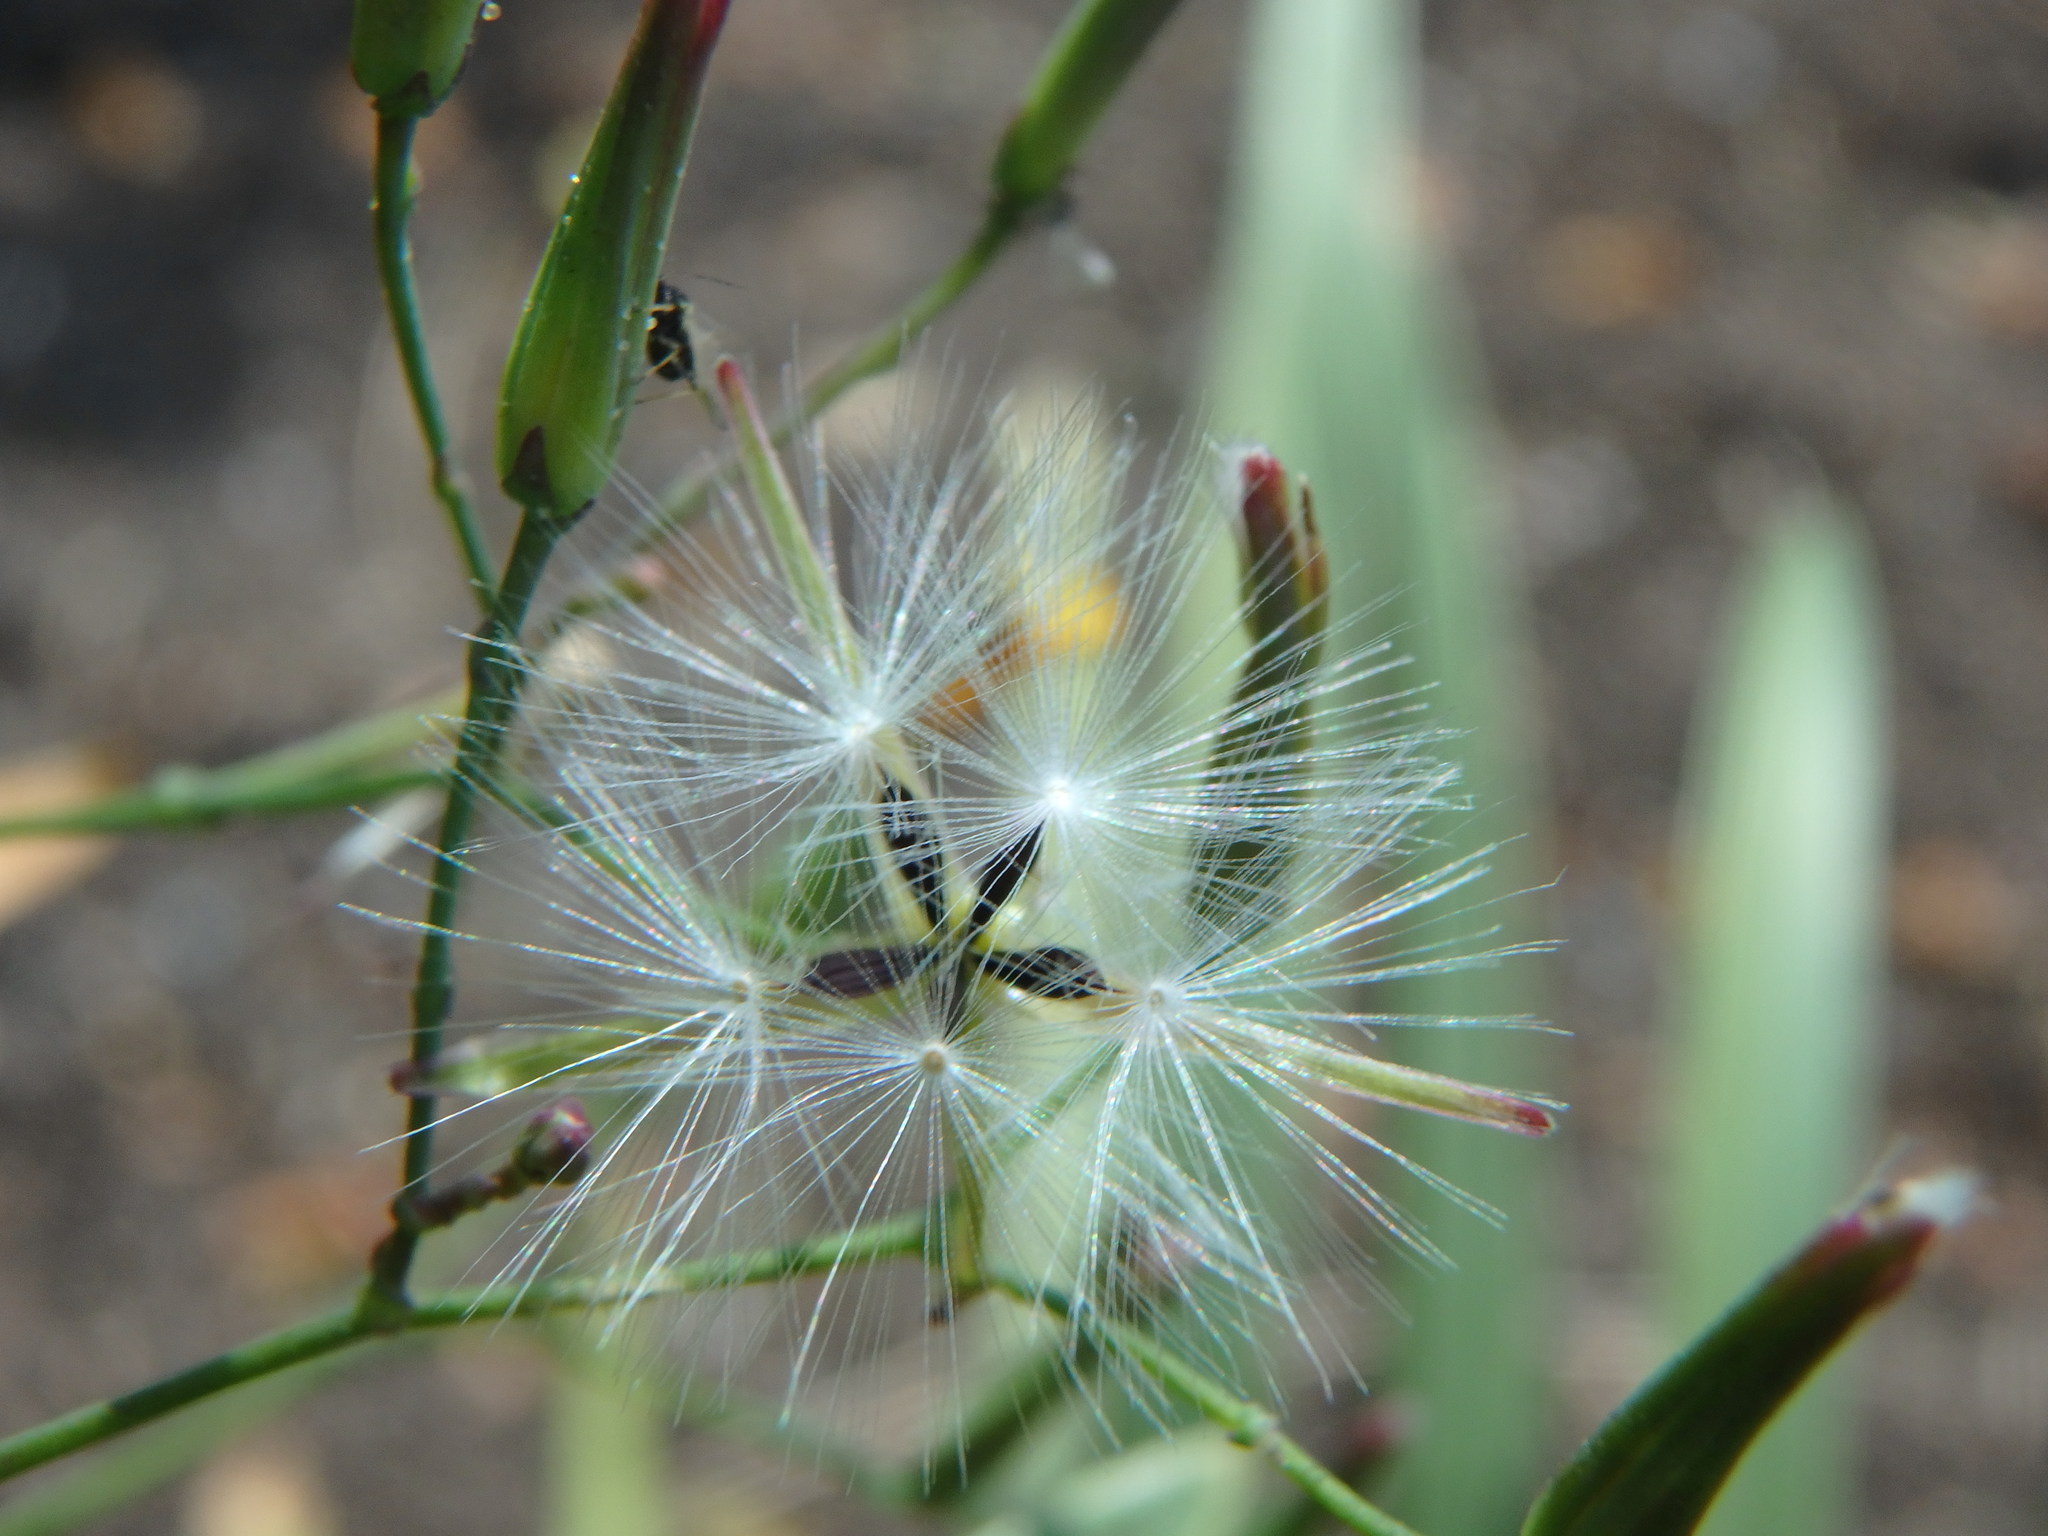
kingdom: Plantae
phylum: Tracheophyta
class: Magnoliopsida
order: Asterales
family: Asteraceae
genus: Mycelis
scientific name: Mycelis muralis
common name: Wall lettuce
